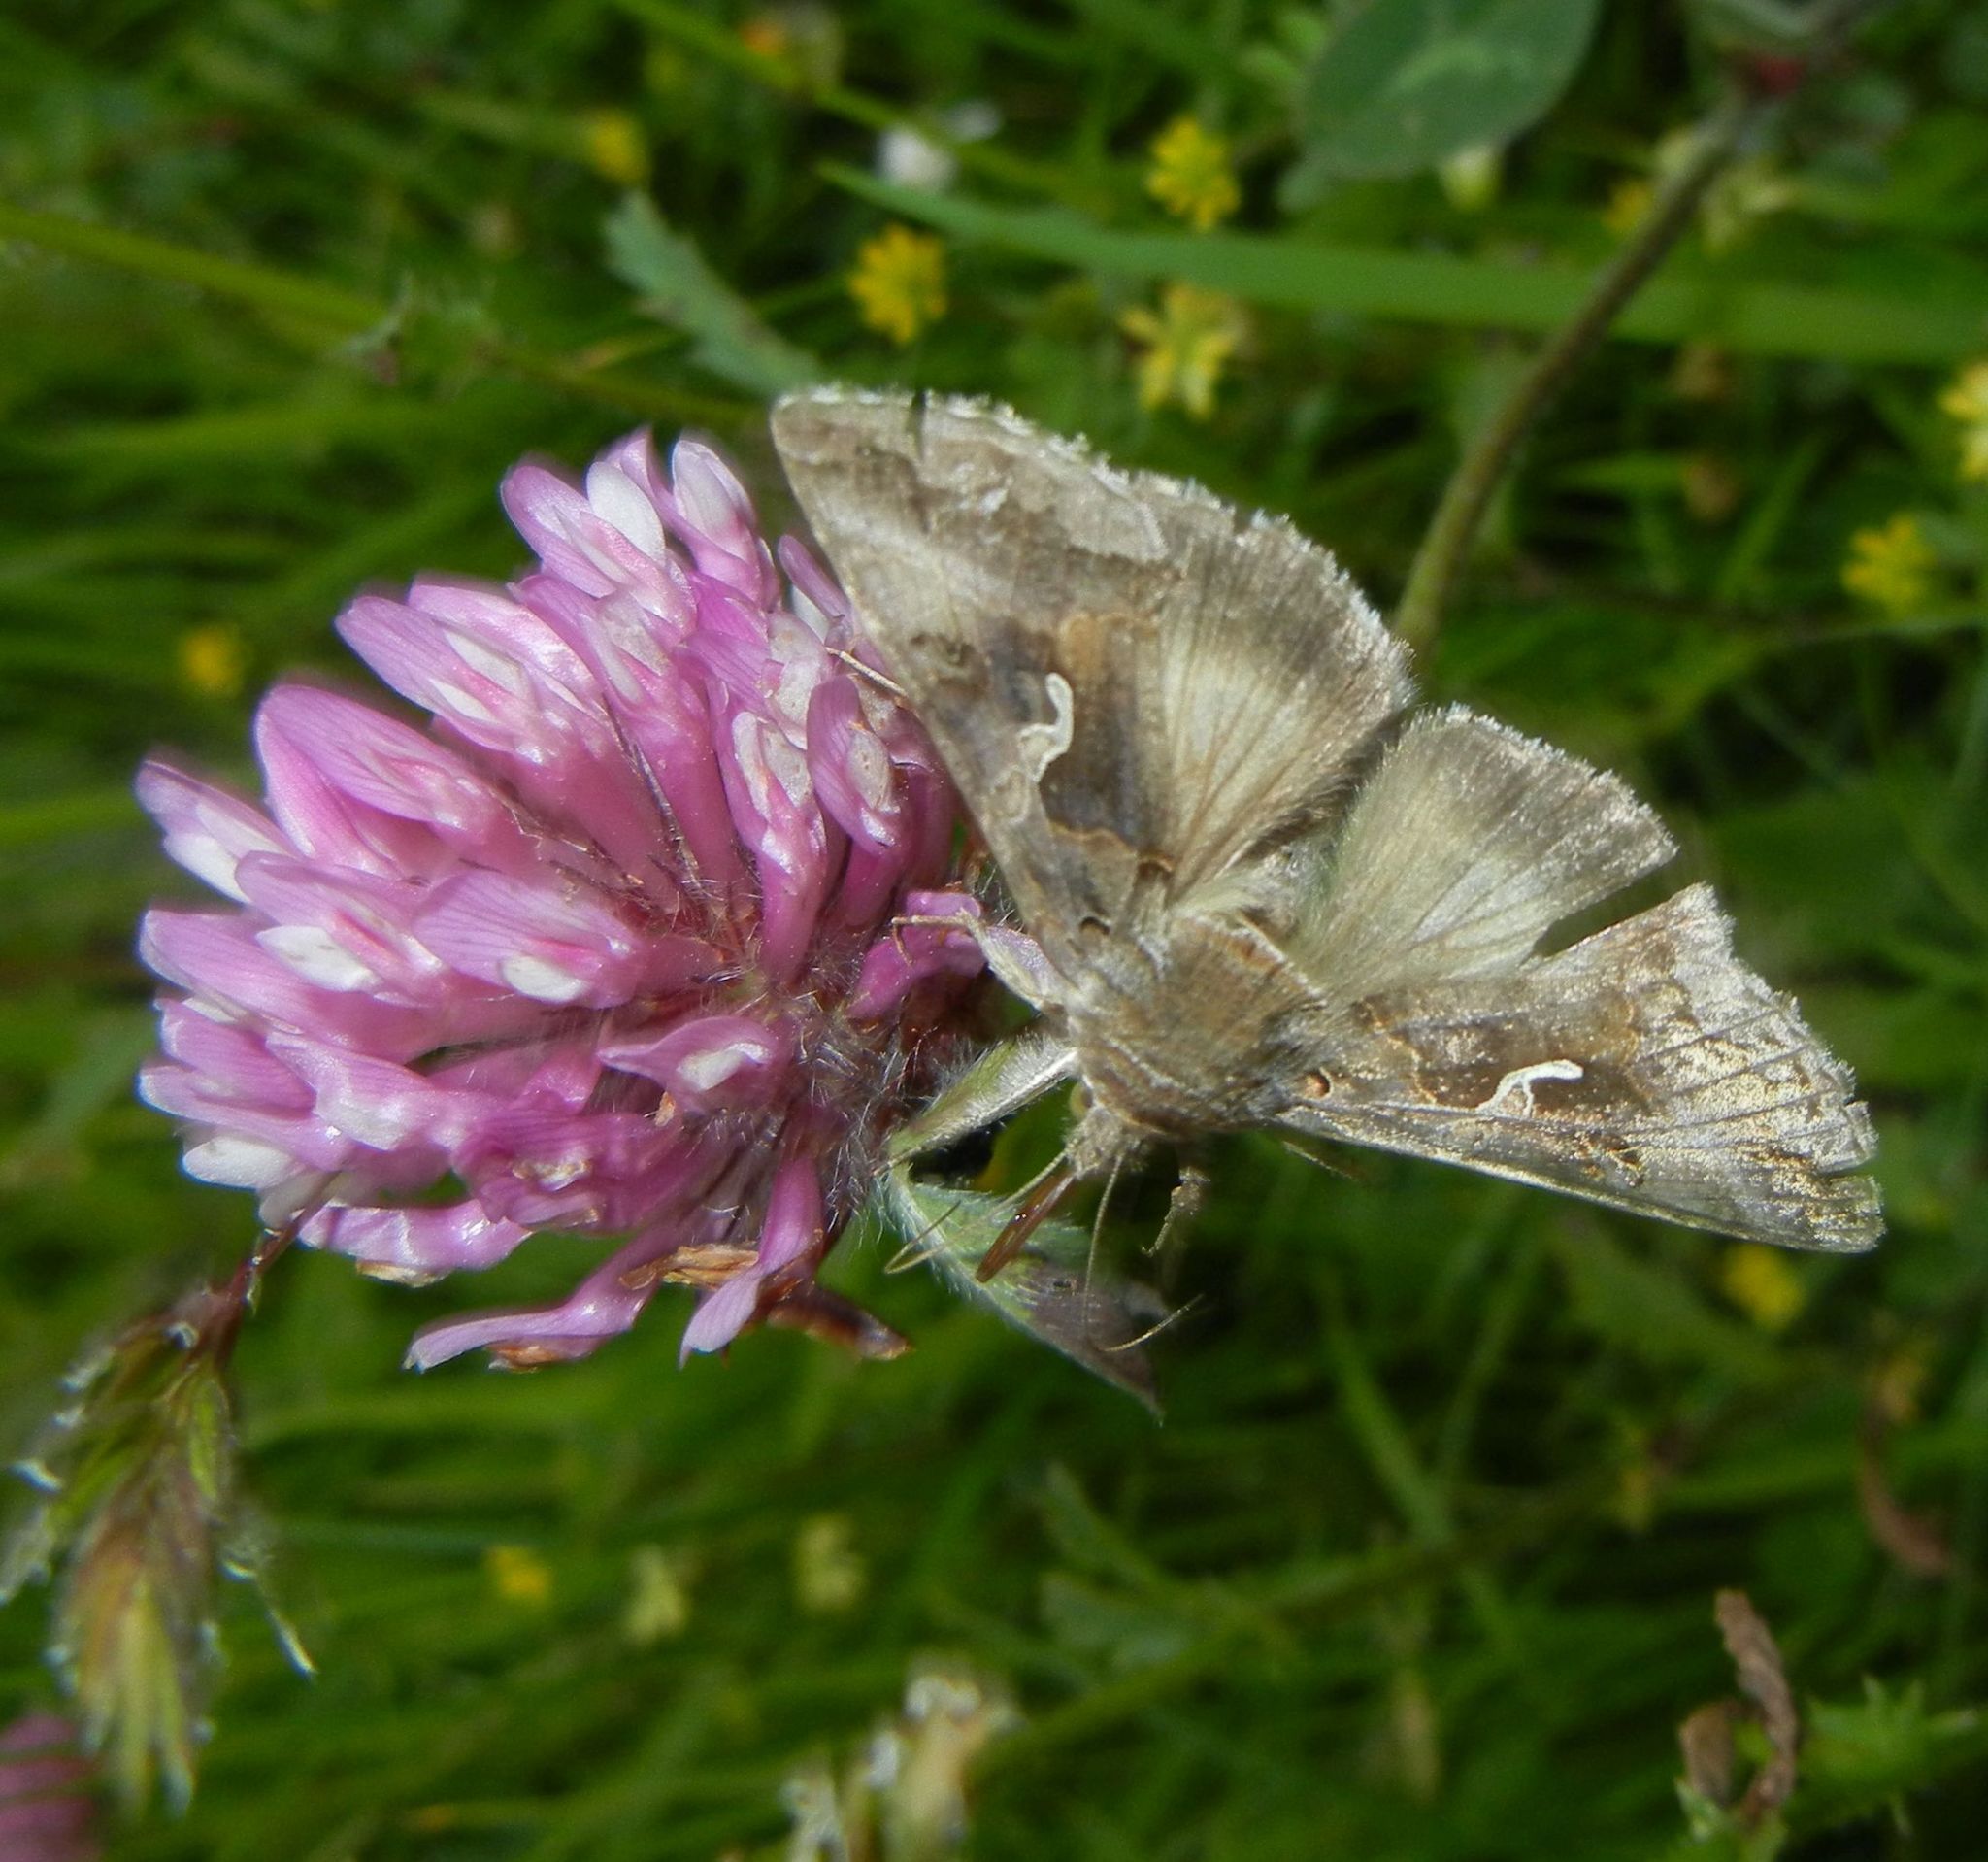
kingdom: Animalia
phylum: Arthropoda
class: Insecta
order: Lepidoptera
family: Noctuidae
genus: Autographa
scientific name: Autographa gamma
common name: Silver y
